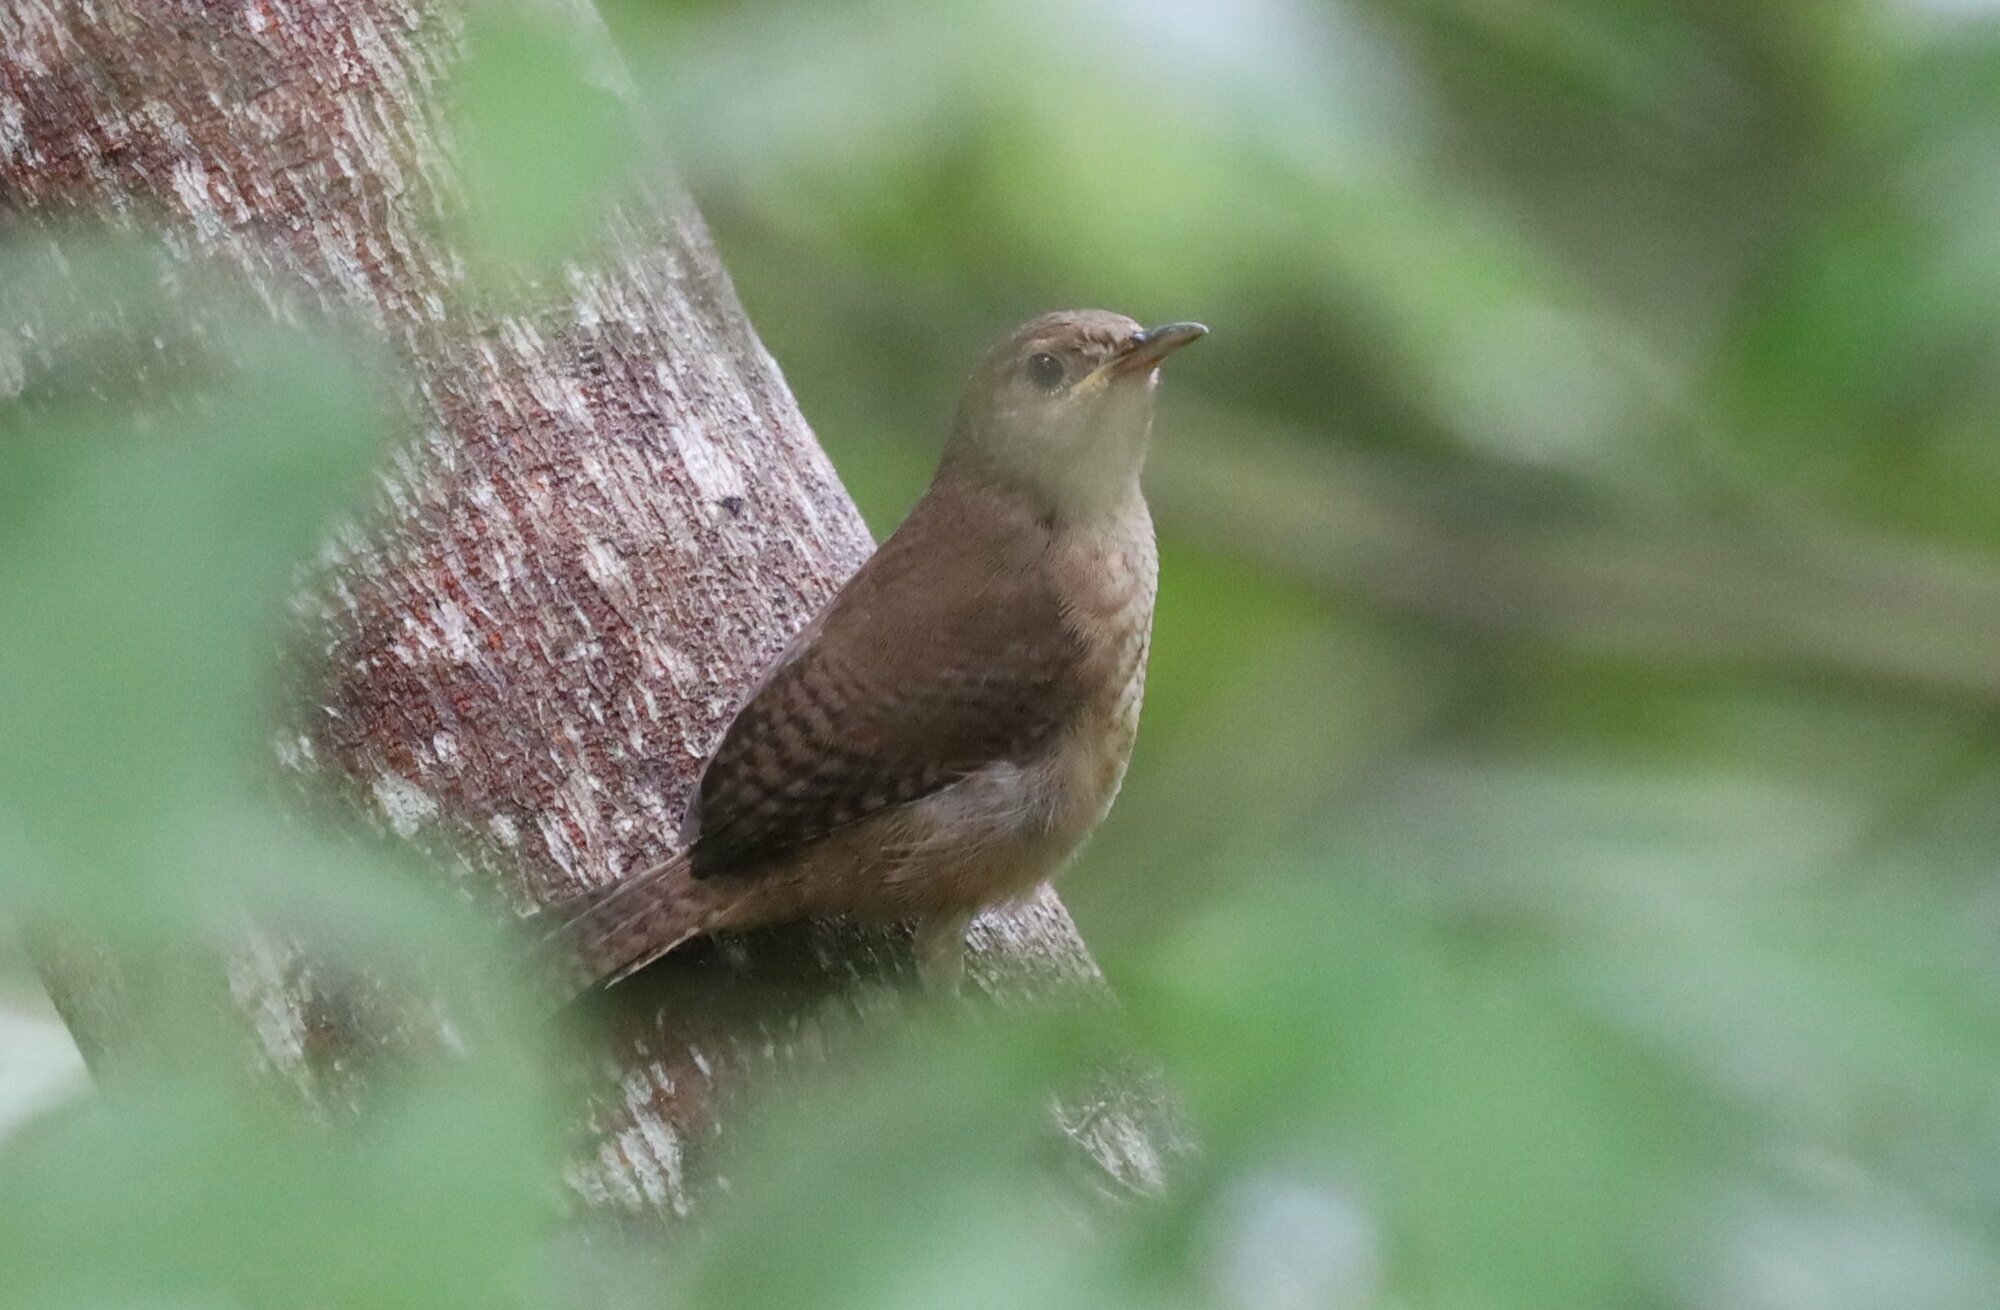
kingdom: Animalia
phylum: Chordata
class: Aves
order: Passeriformes
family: Troglodytidae
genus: Troglodytes
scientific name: Troglodytes aedon
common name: House wren
